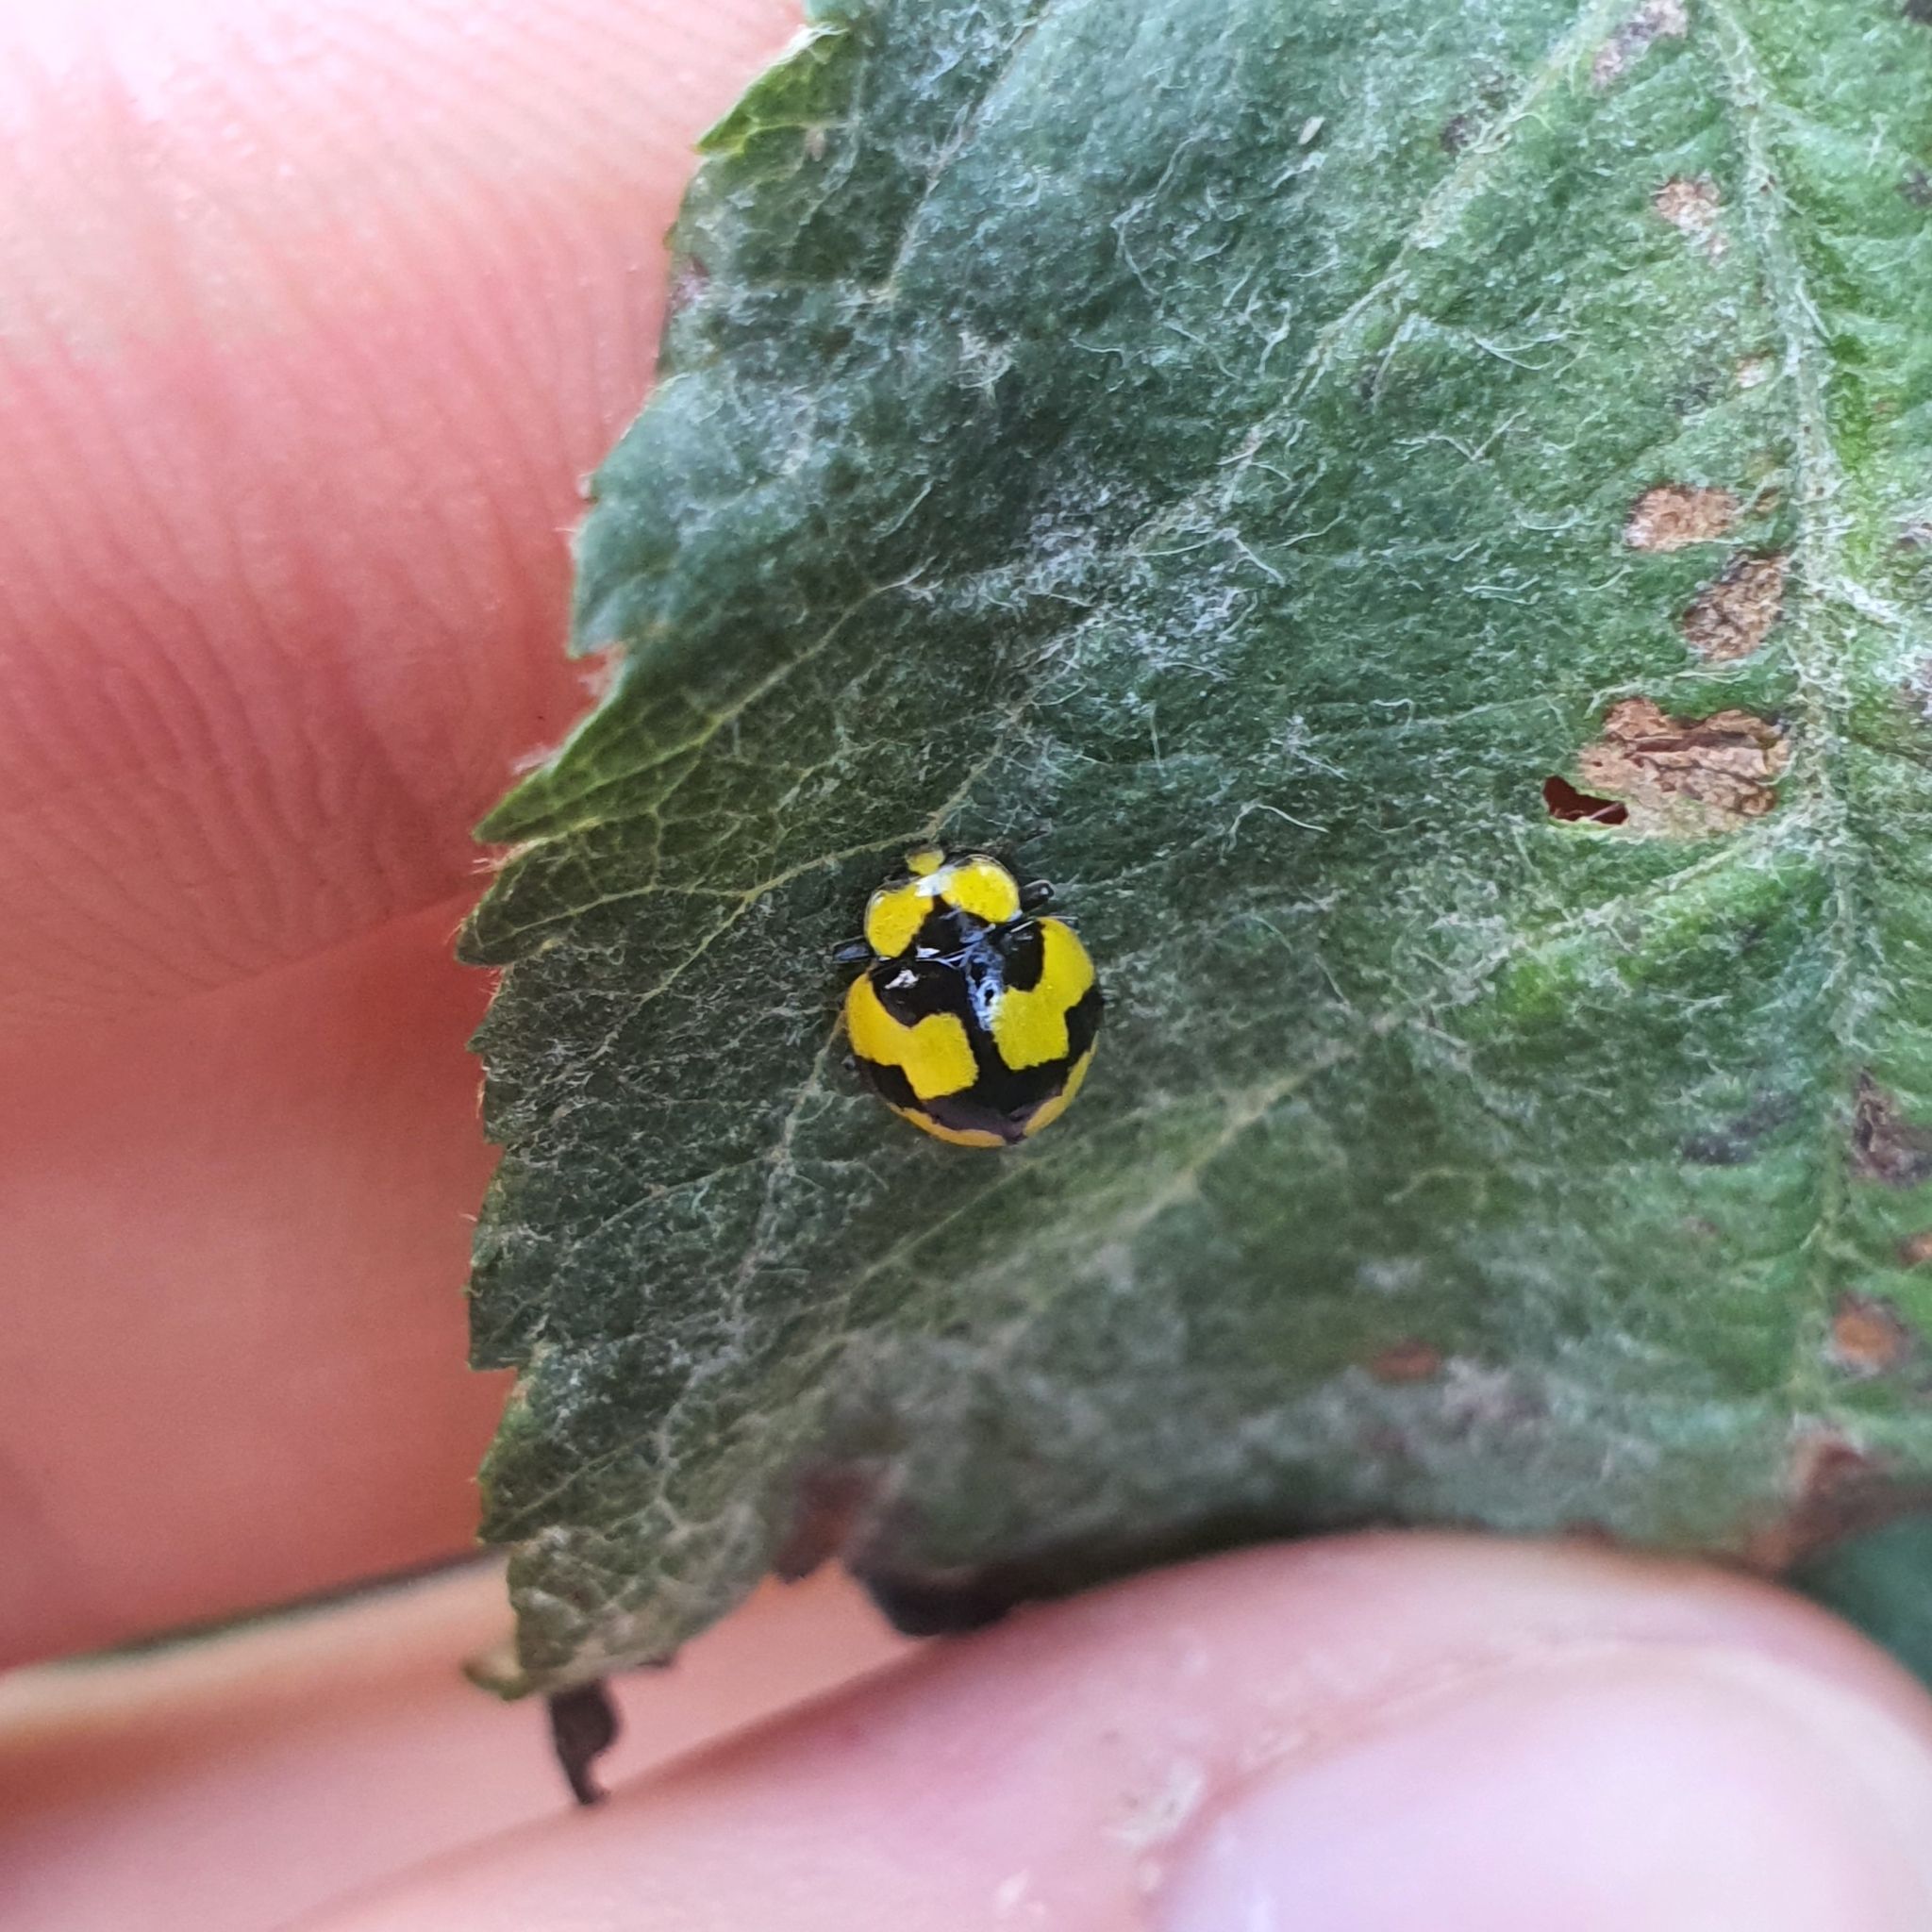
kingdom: Animalia
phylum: Arthropoda
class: Insecta
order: Coleoptera
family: Coccinellidae
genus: Illeis
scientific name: Illeis galbula
